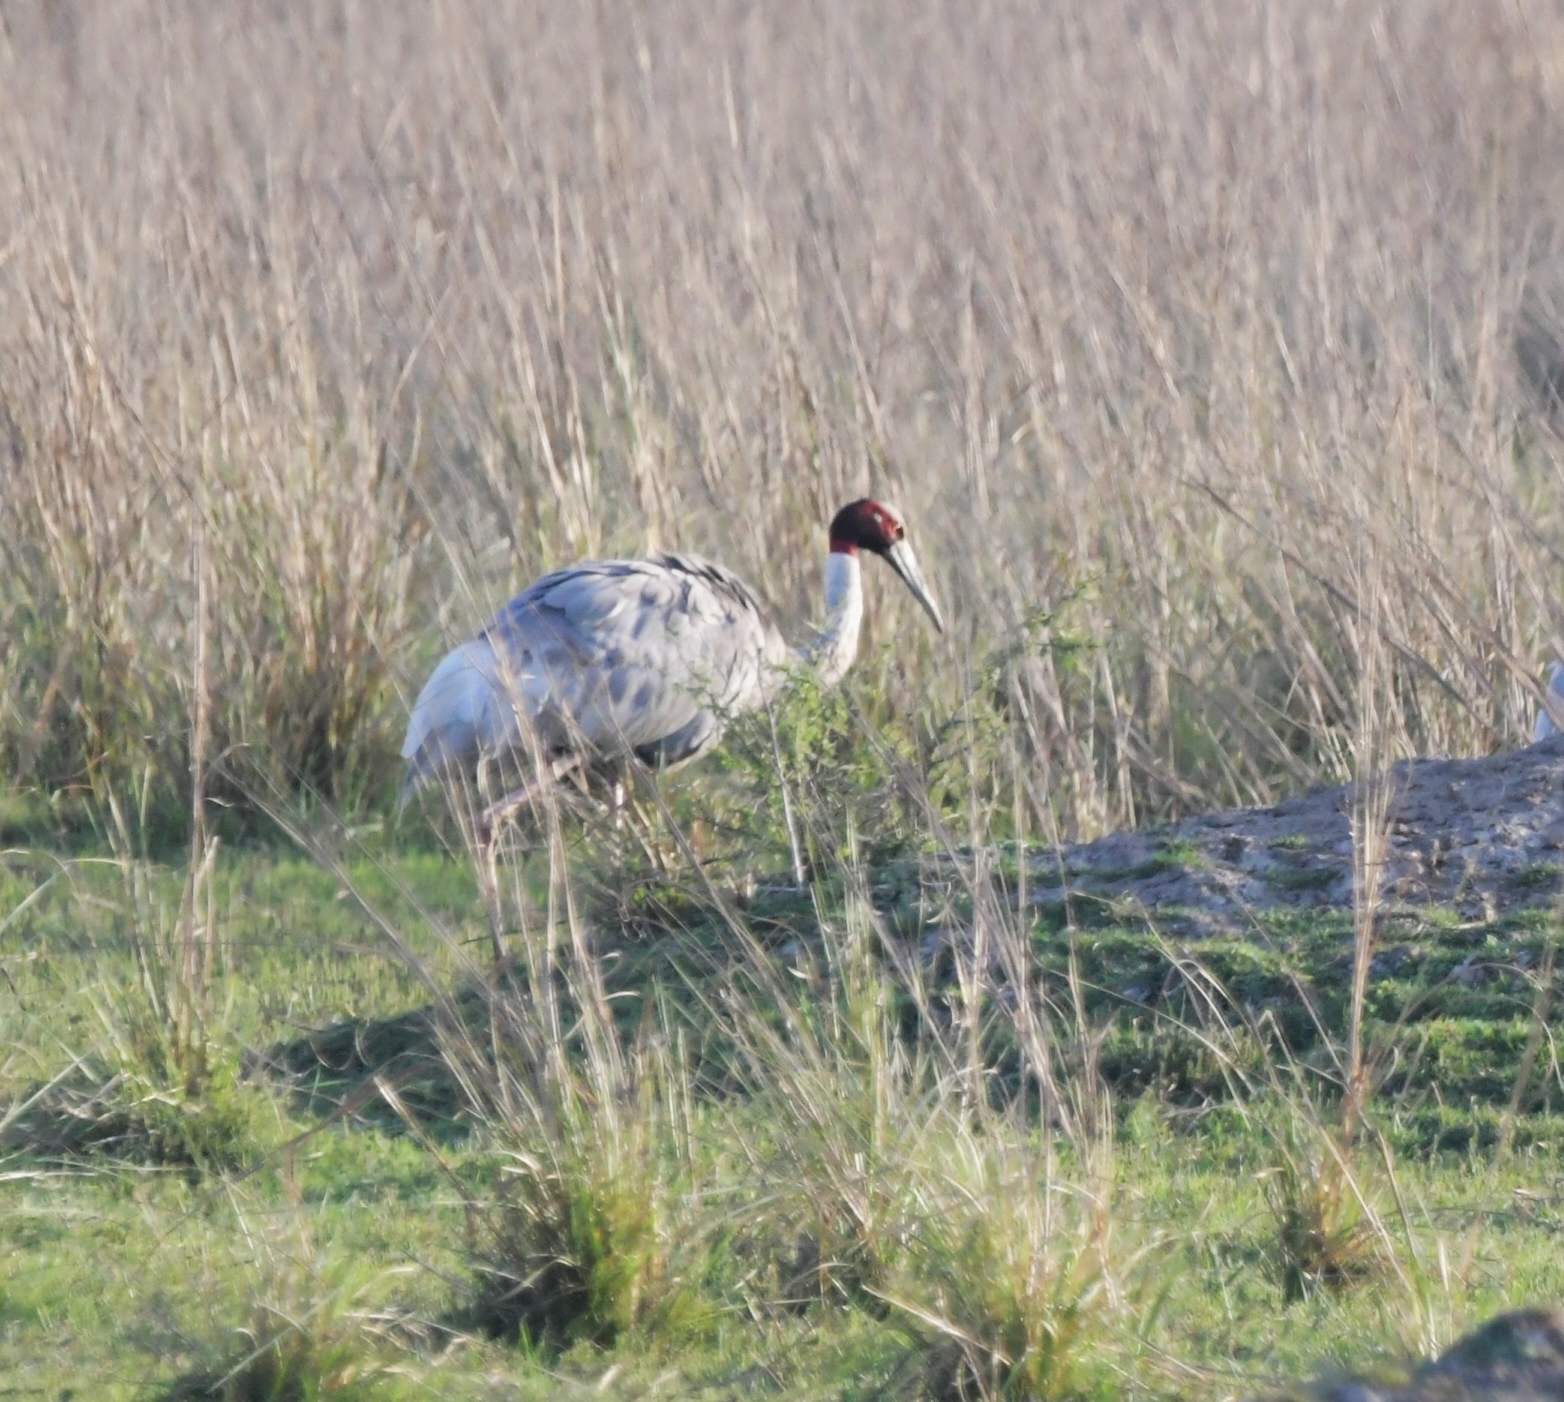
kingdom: Animalia
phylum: Chordata
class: Aves
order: Gruiformes
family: Gruidae
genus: Grus
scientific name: Grus antigone
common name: Sarus crane
